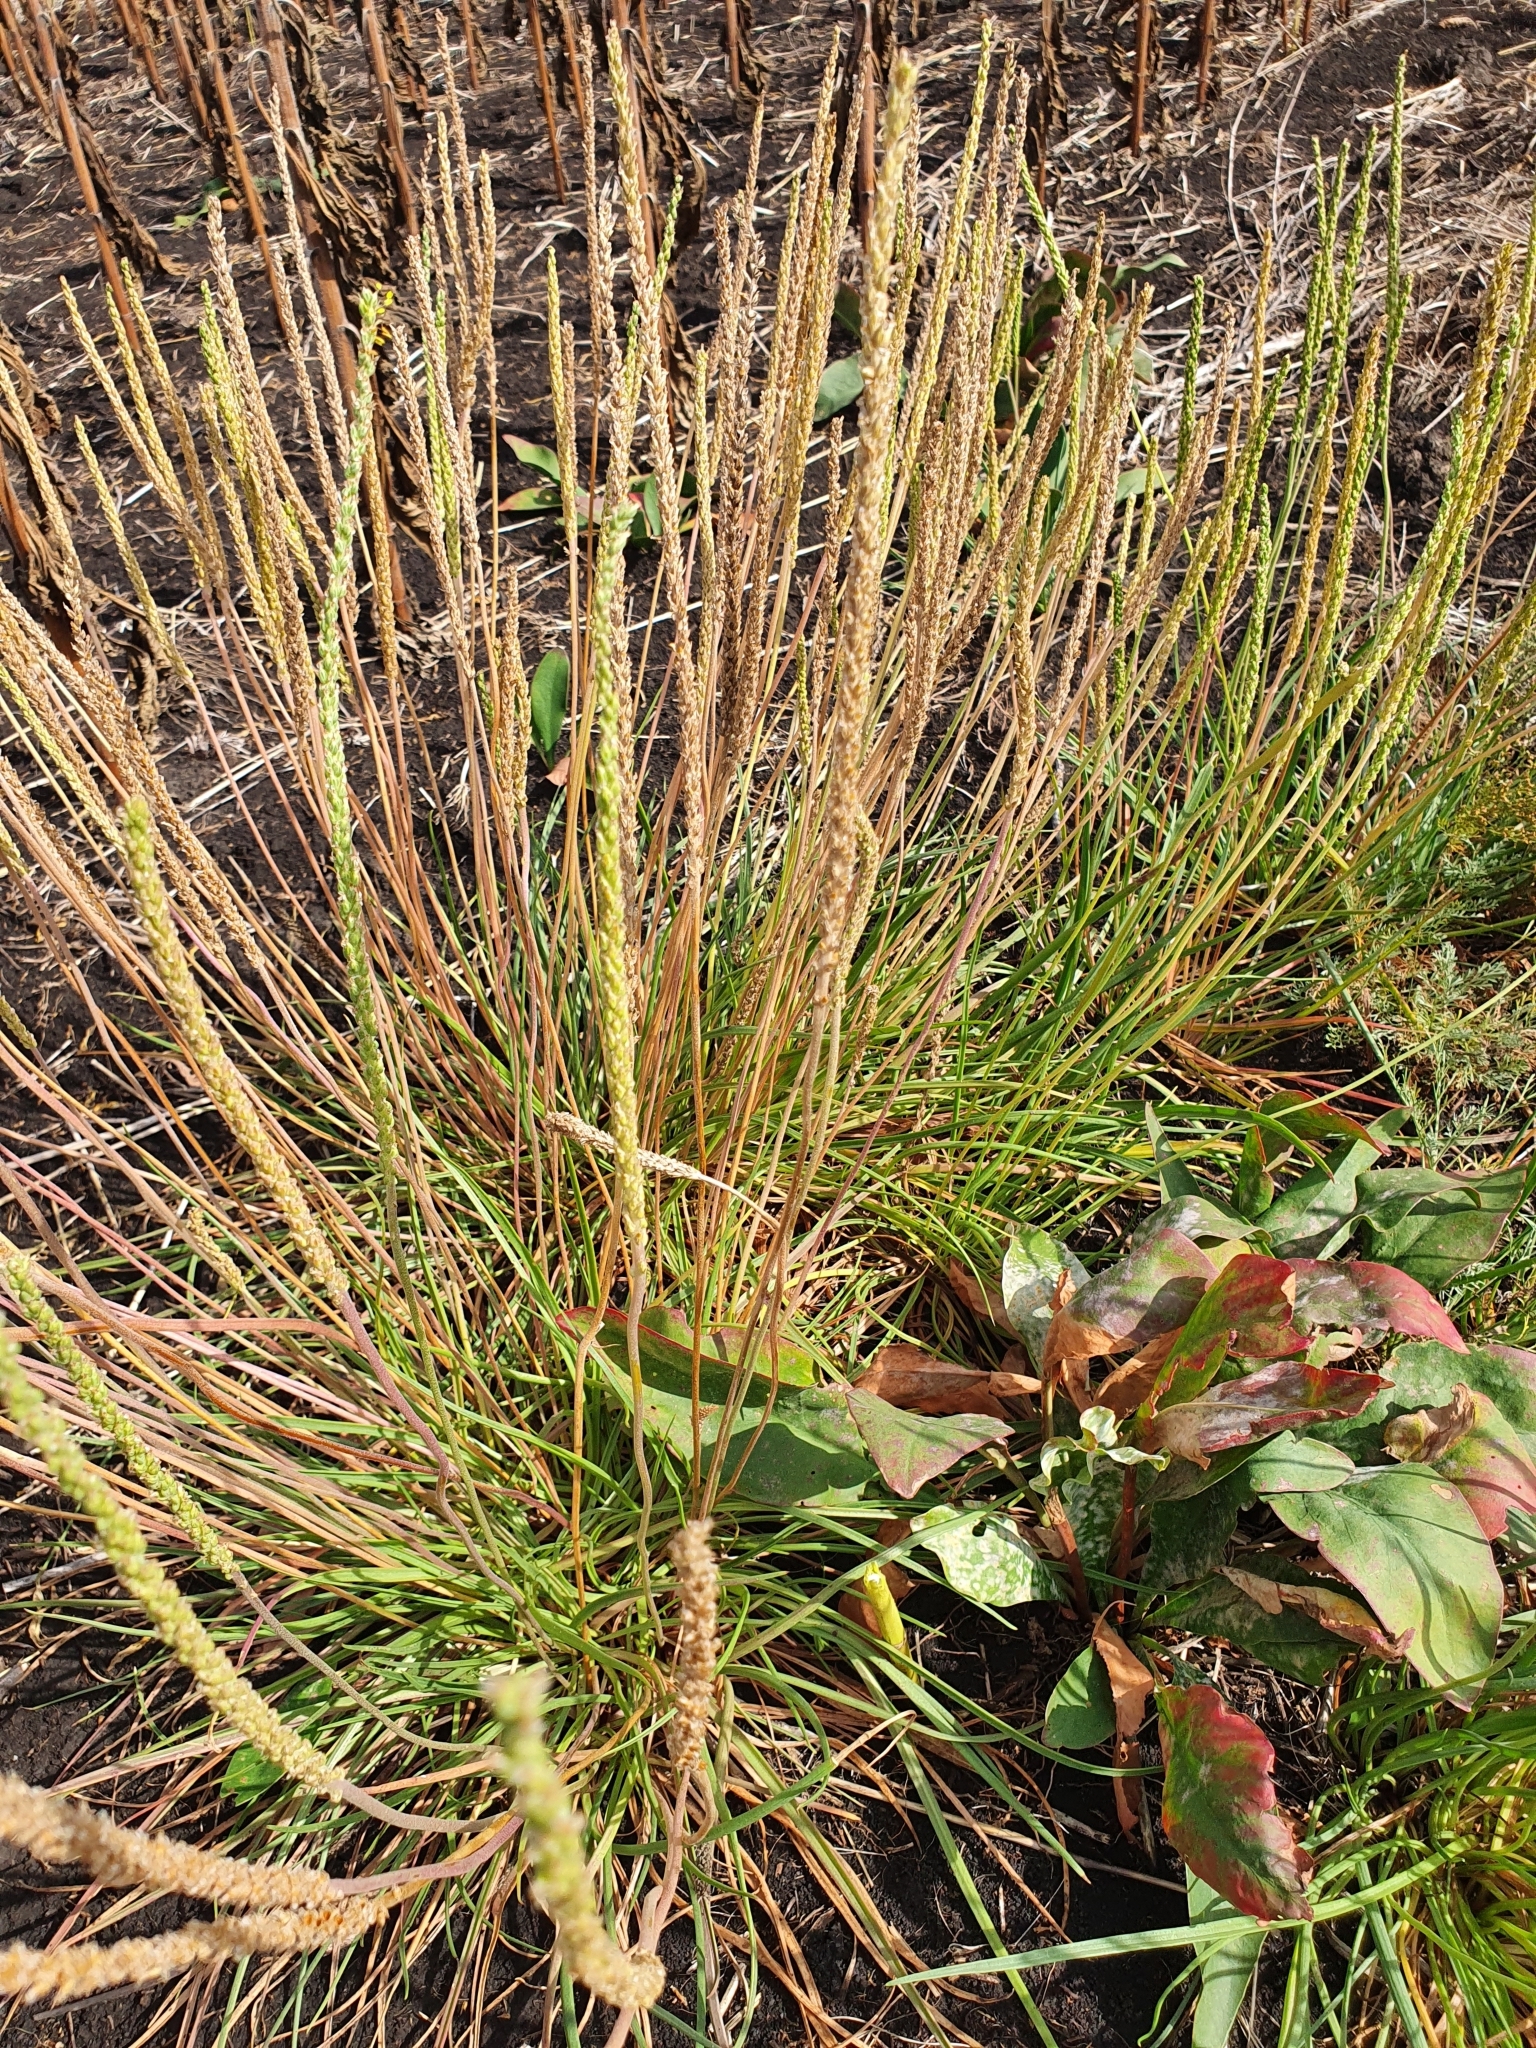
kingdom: Plantae
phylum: Tracheophyta
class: Magnoliopsida
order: Lamiales
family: Plantaginaceae
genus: Plantago
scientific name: Plantago salsa
